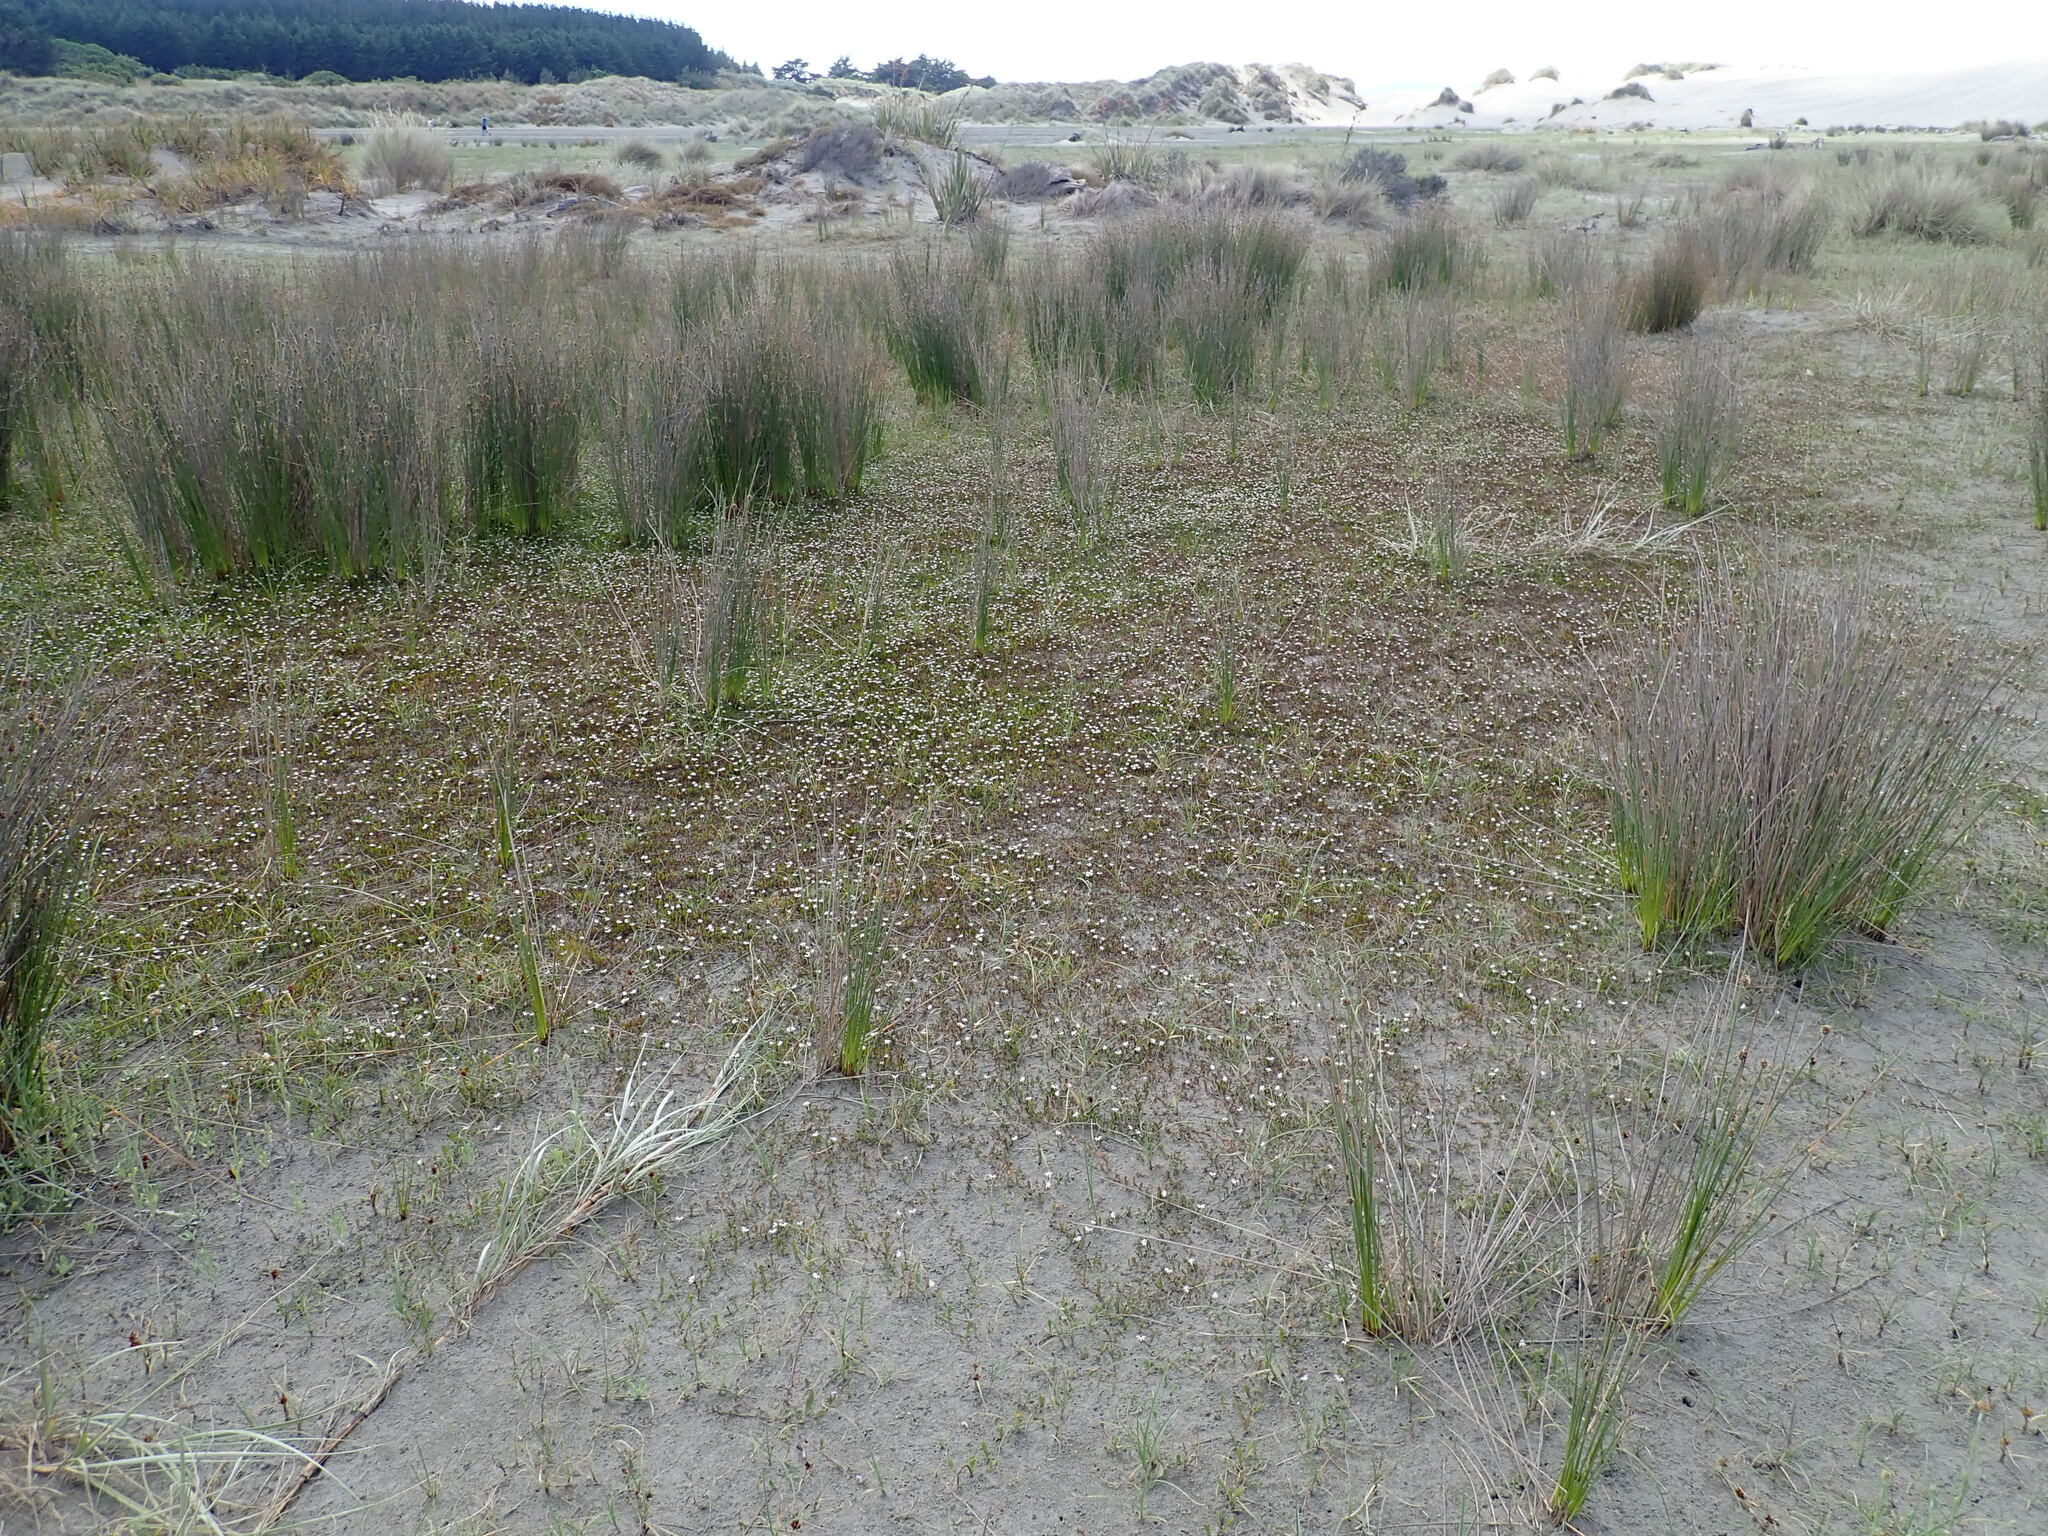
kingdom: Plantae
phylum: Tracheophyta
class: Magnoliopsida
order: Asterales
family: Goodeniaceae
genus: Goodenia
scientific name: Goodenia radicans
